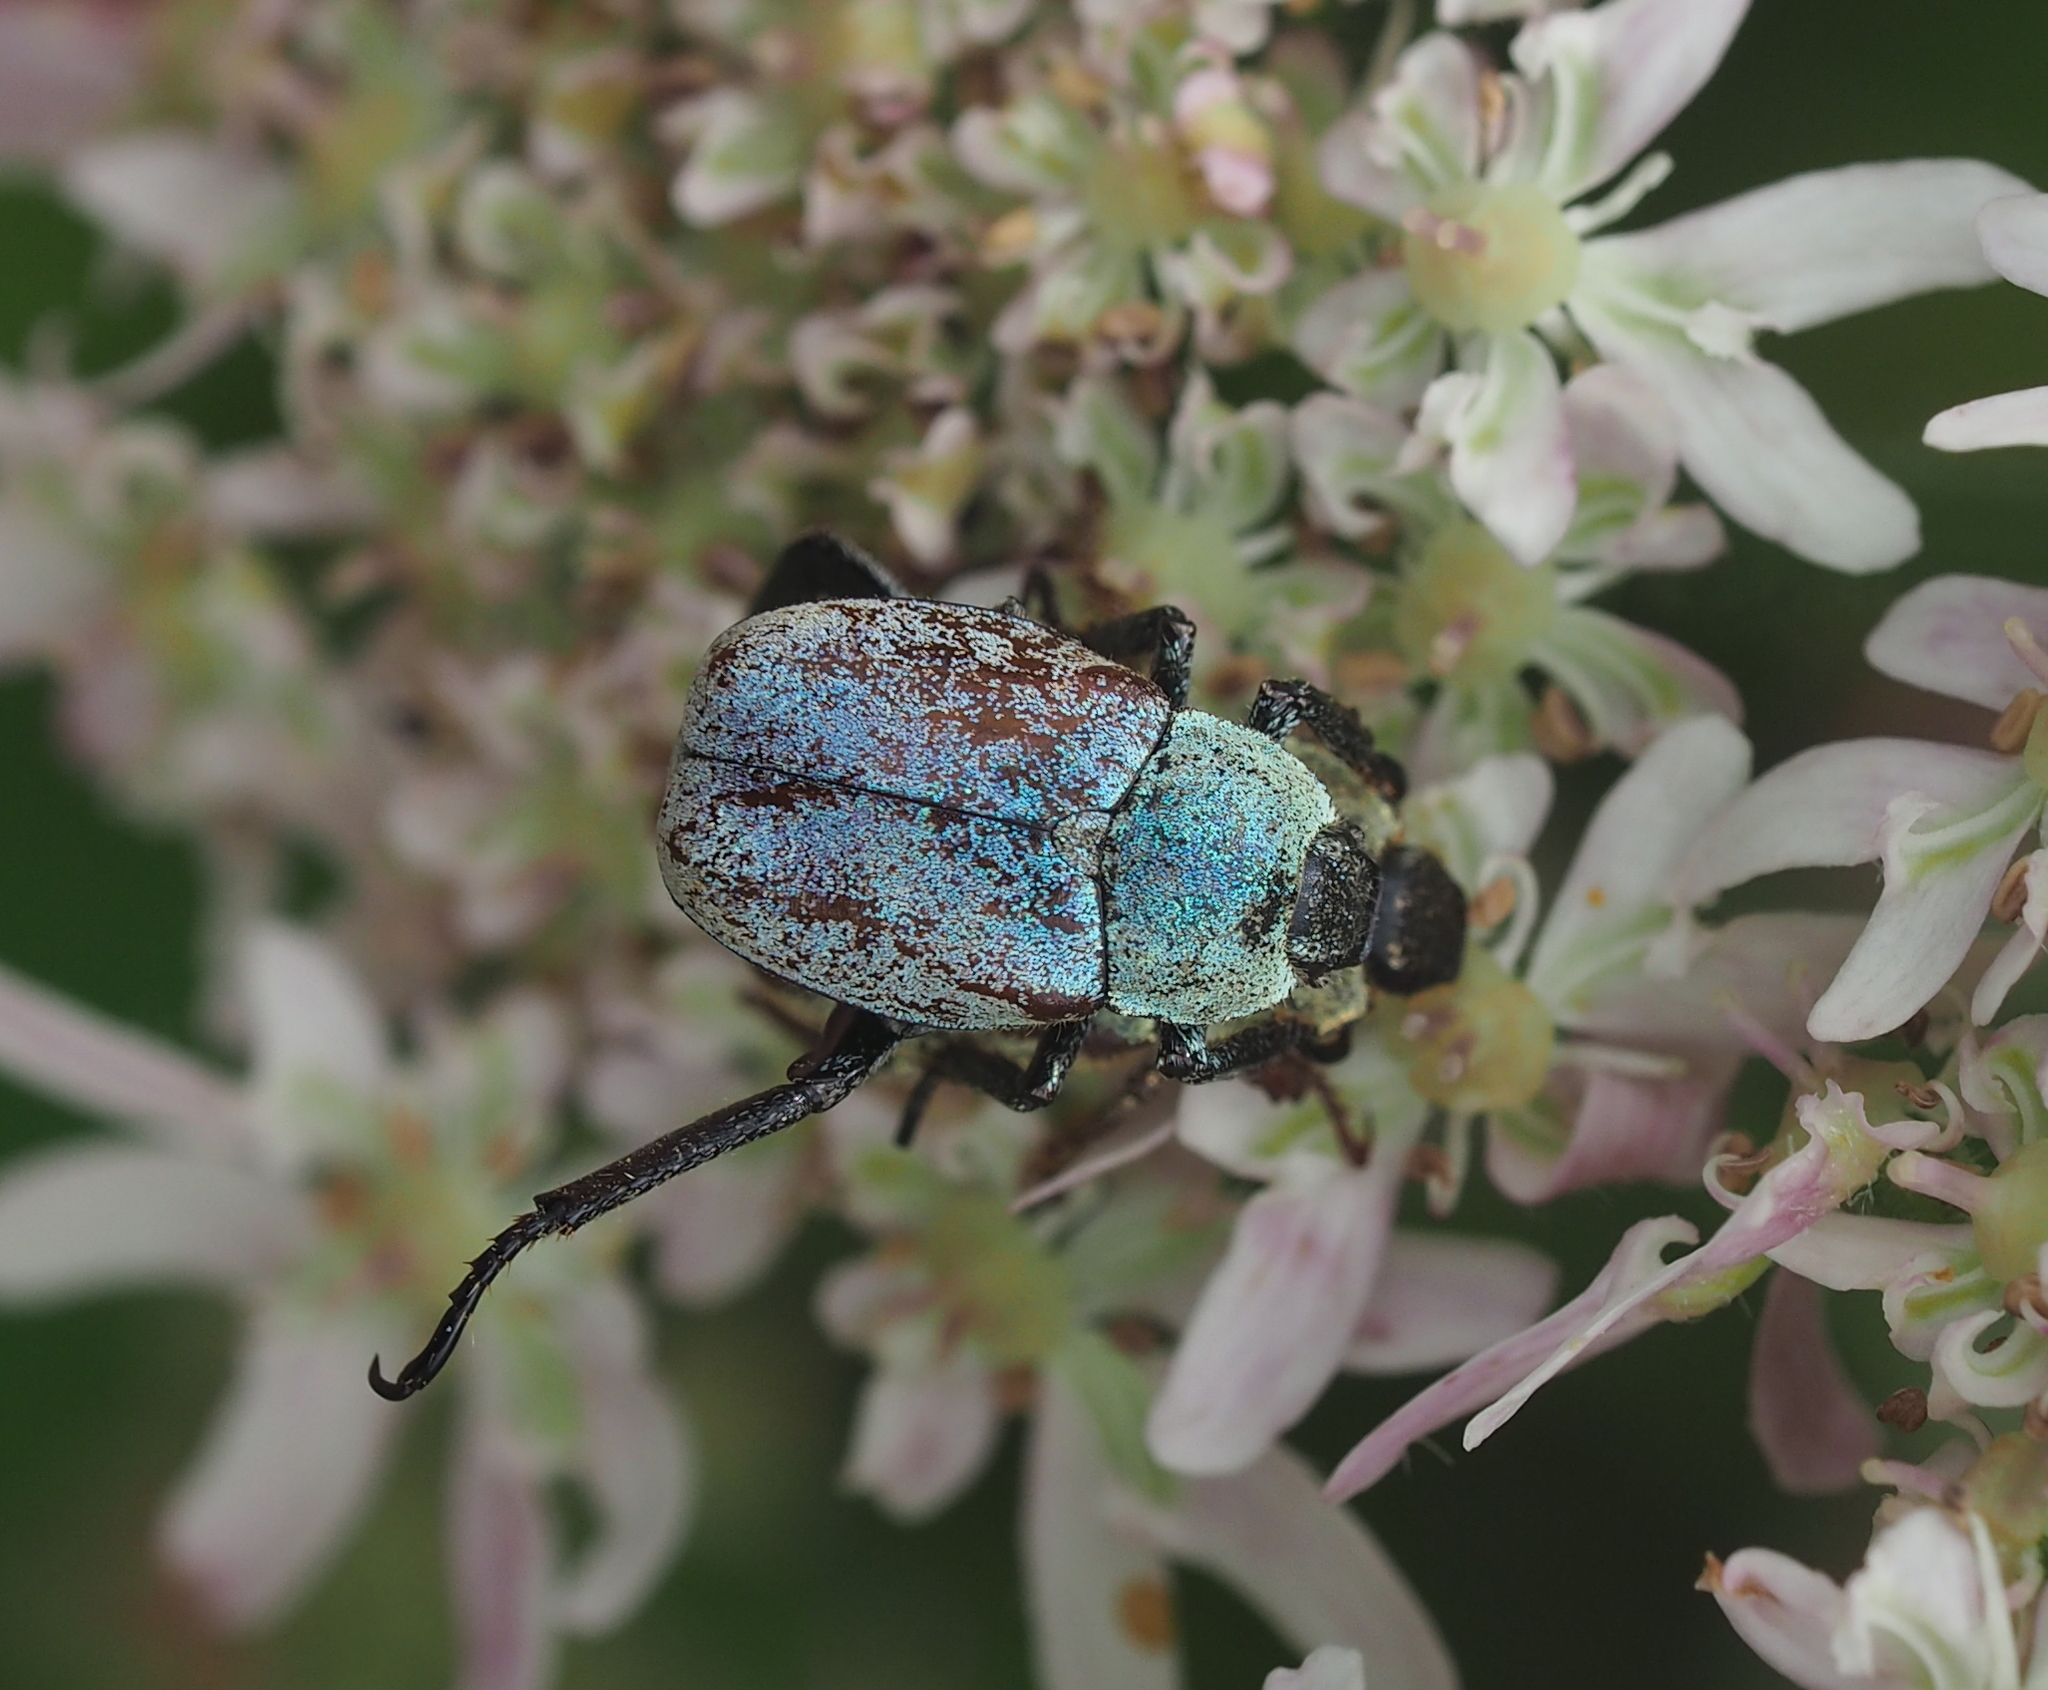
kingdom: Animalia
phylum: Arthropoda
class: Insecta
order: Coleoptera
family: Scarabaeidae
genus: Hoplia
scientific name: Hoplia argentea
